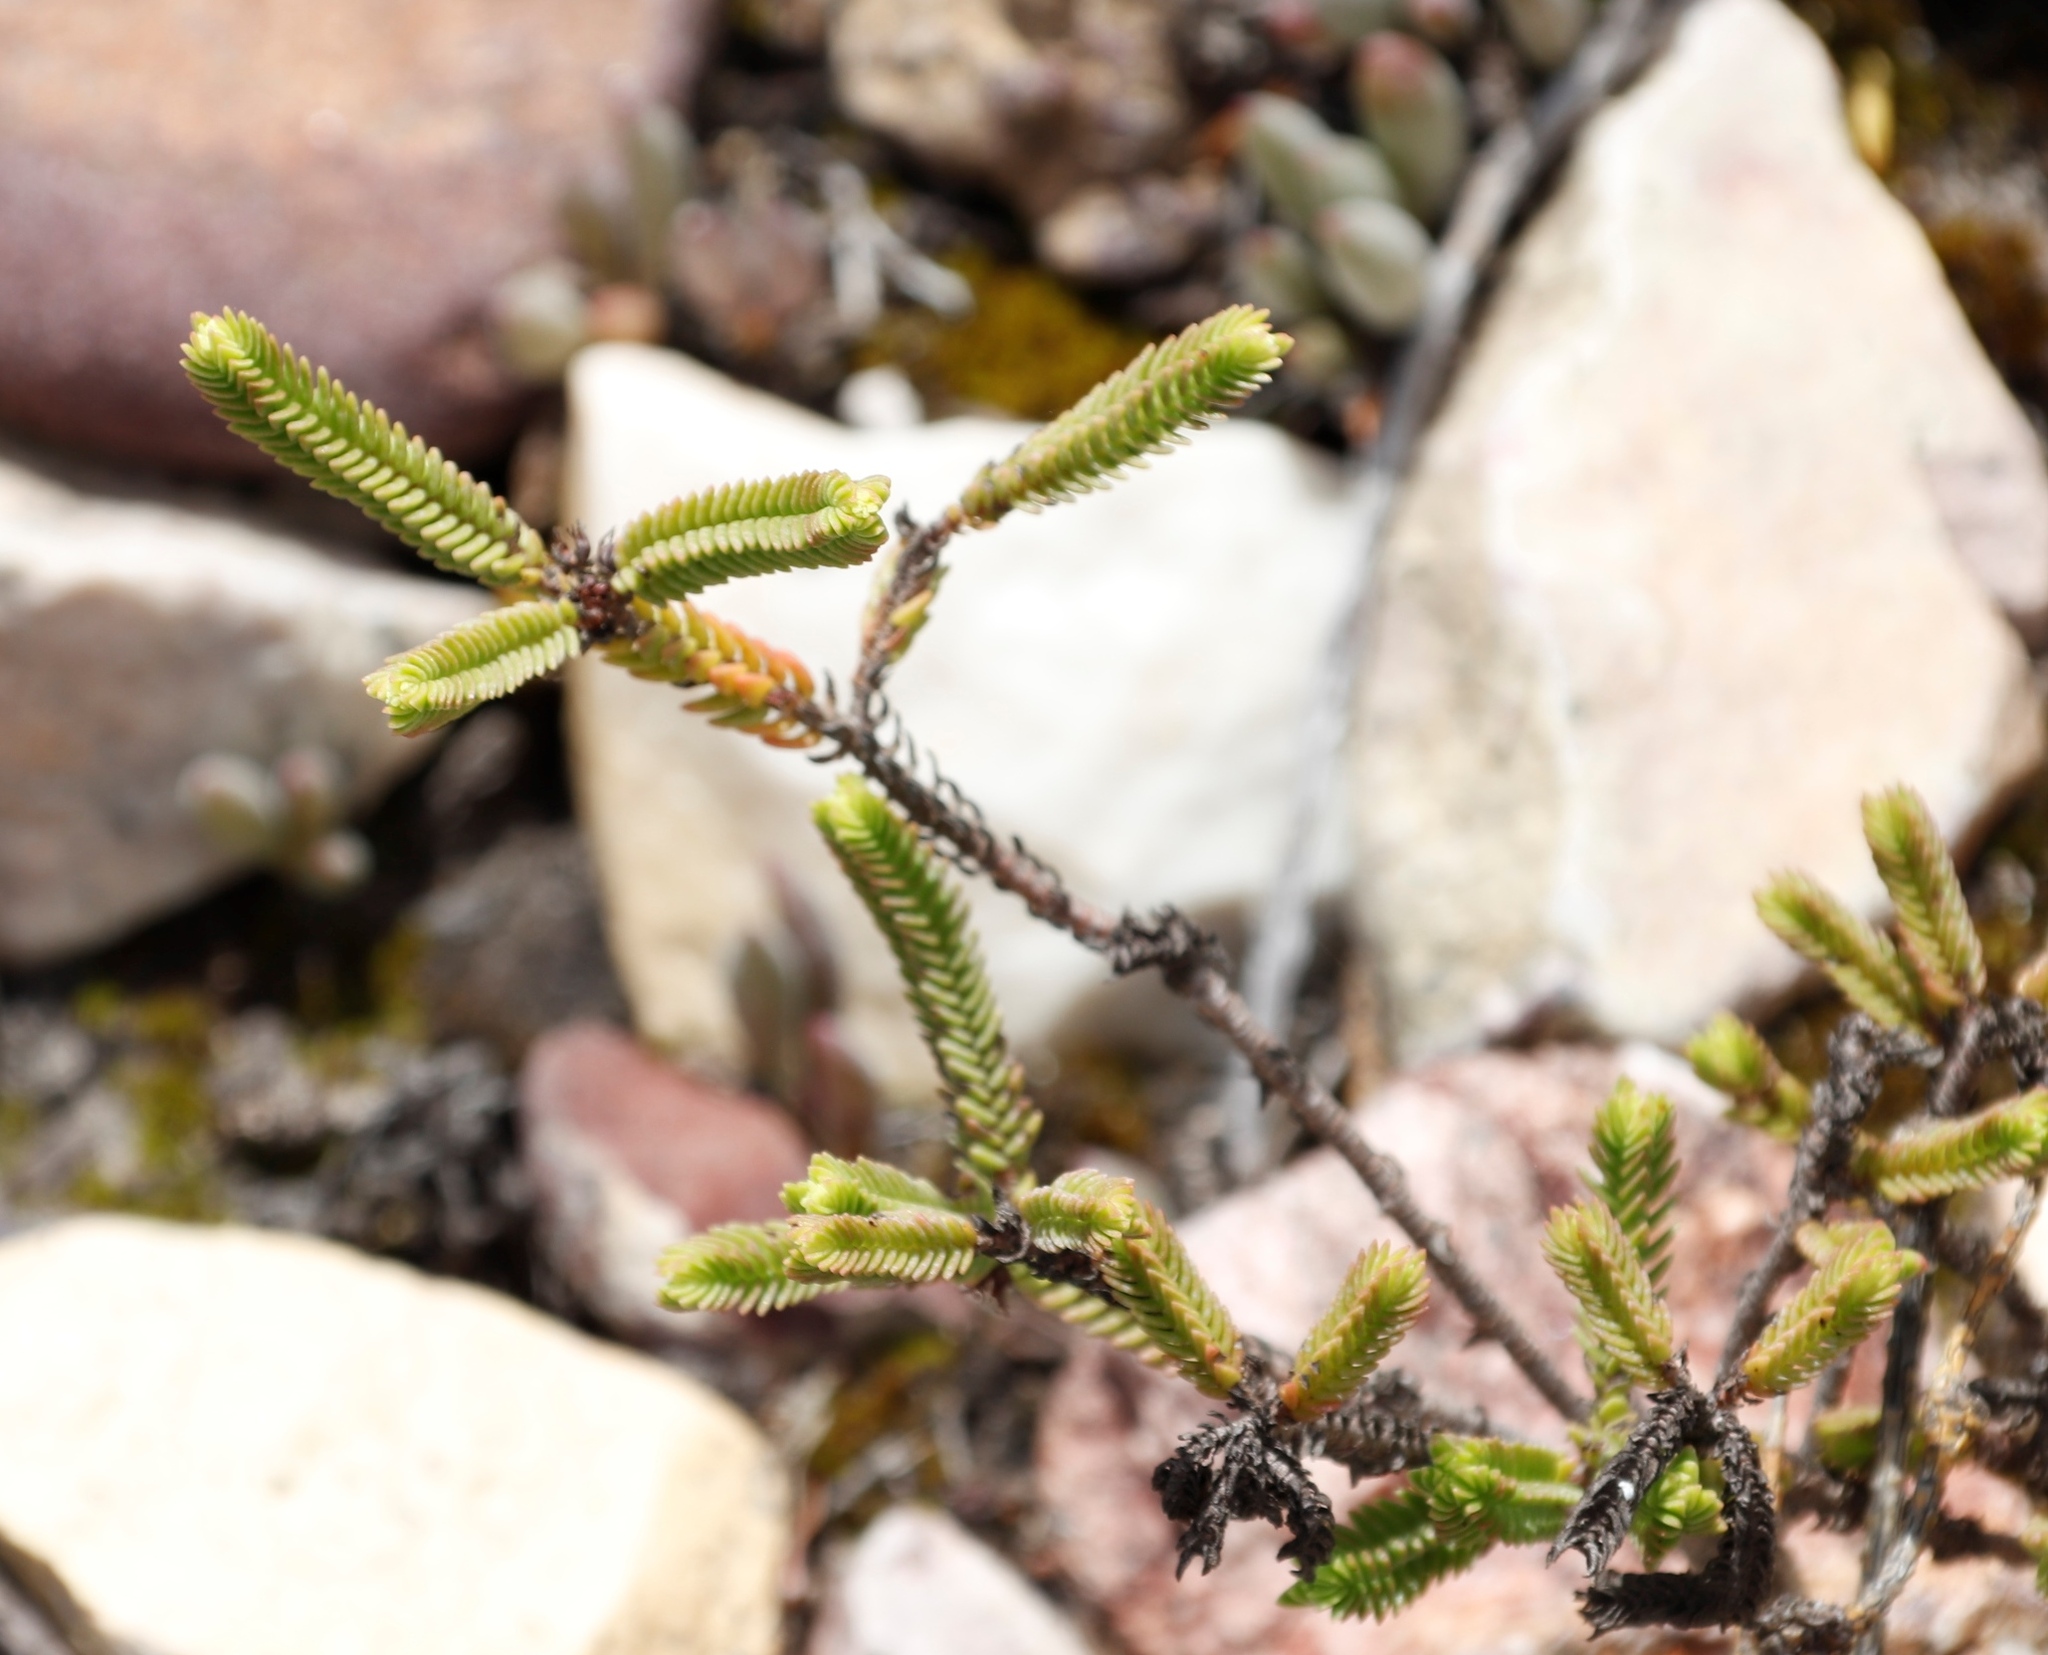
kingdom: Plantae
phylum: Tracheophyta
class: Magnoliopsida
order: Saxifragales
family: Crassulaceae
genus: Crassula
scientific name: Crassula muscosa
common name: Toy-cypress
